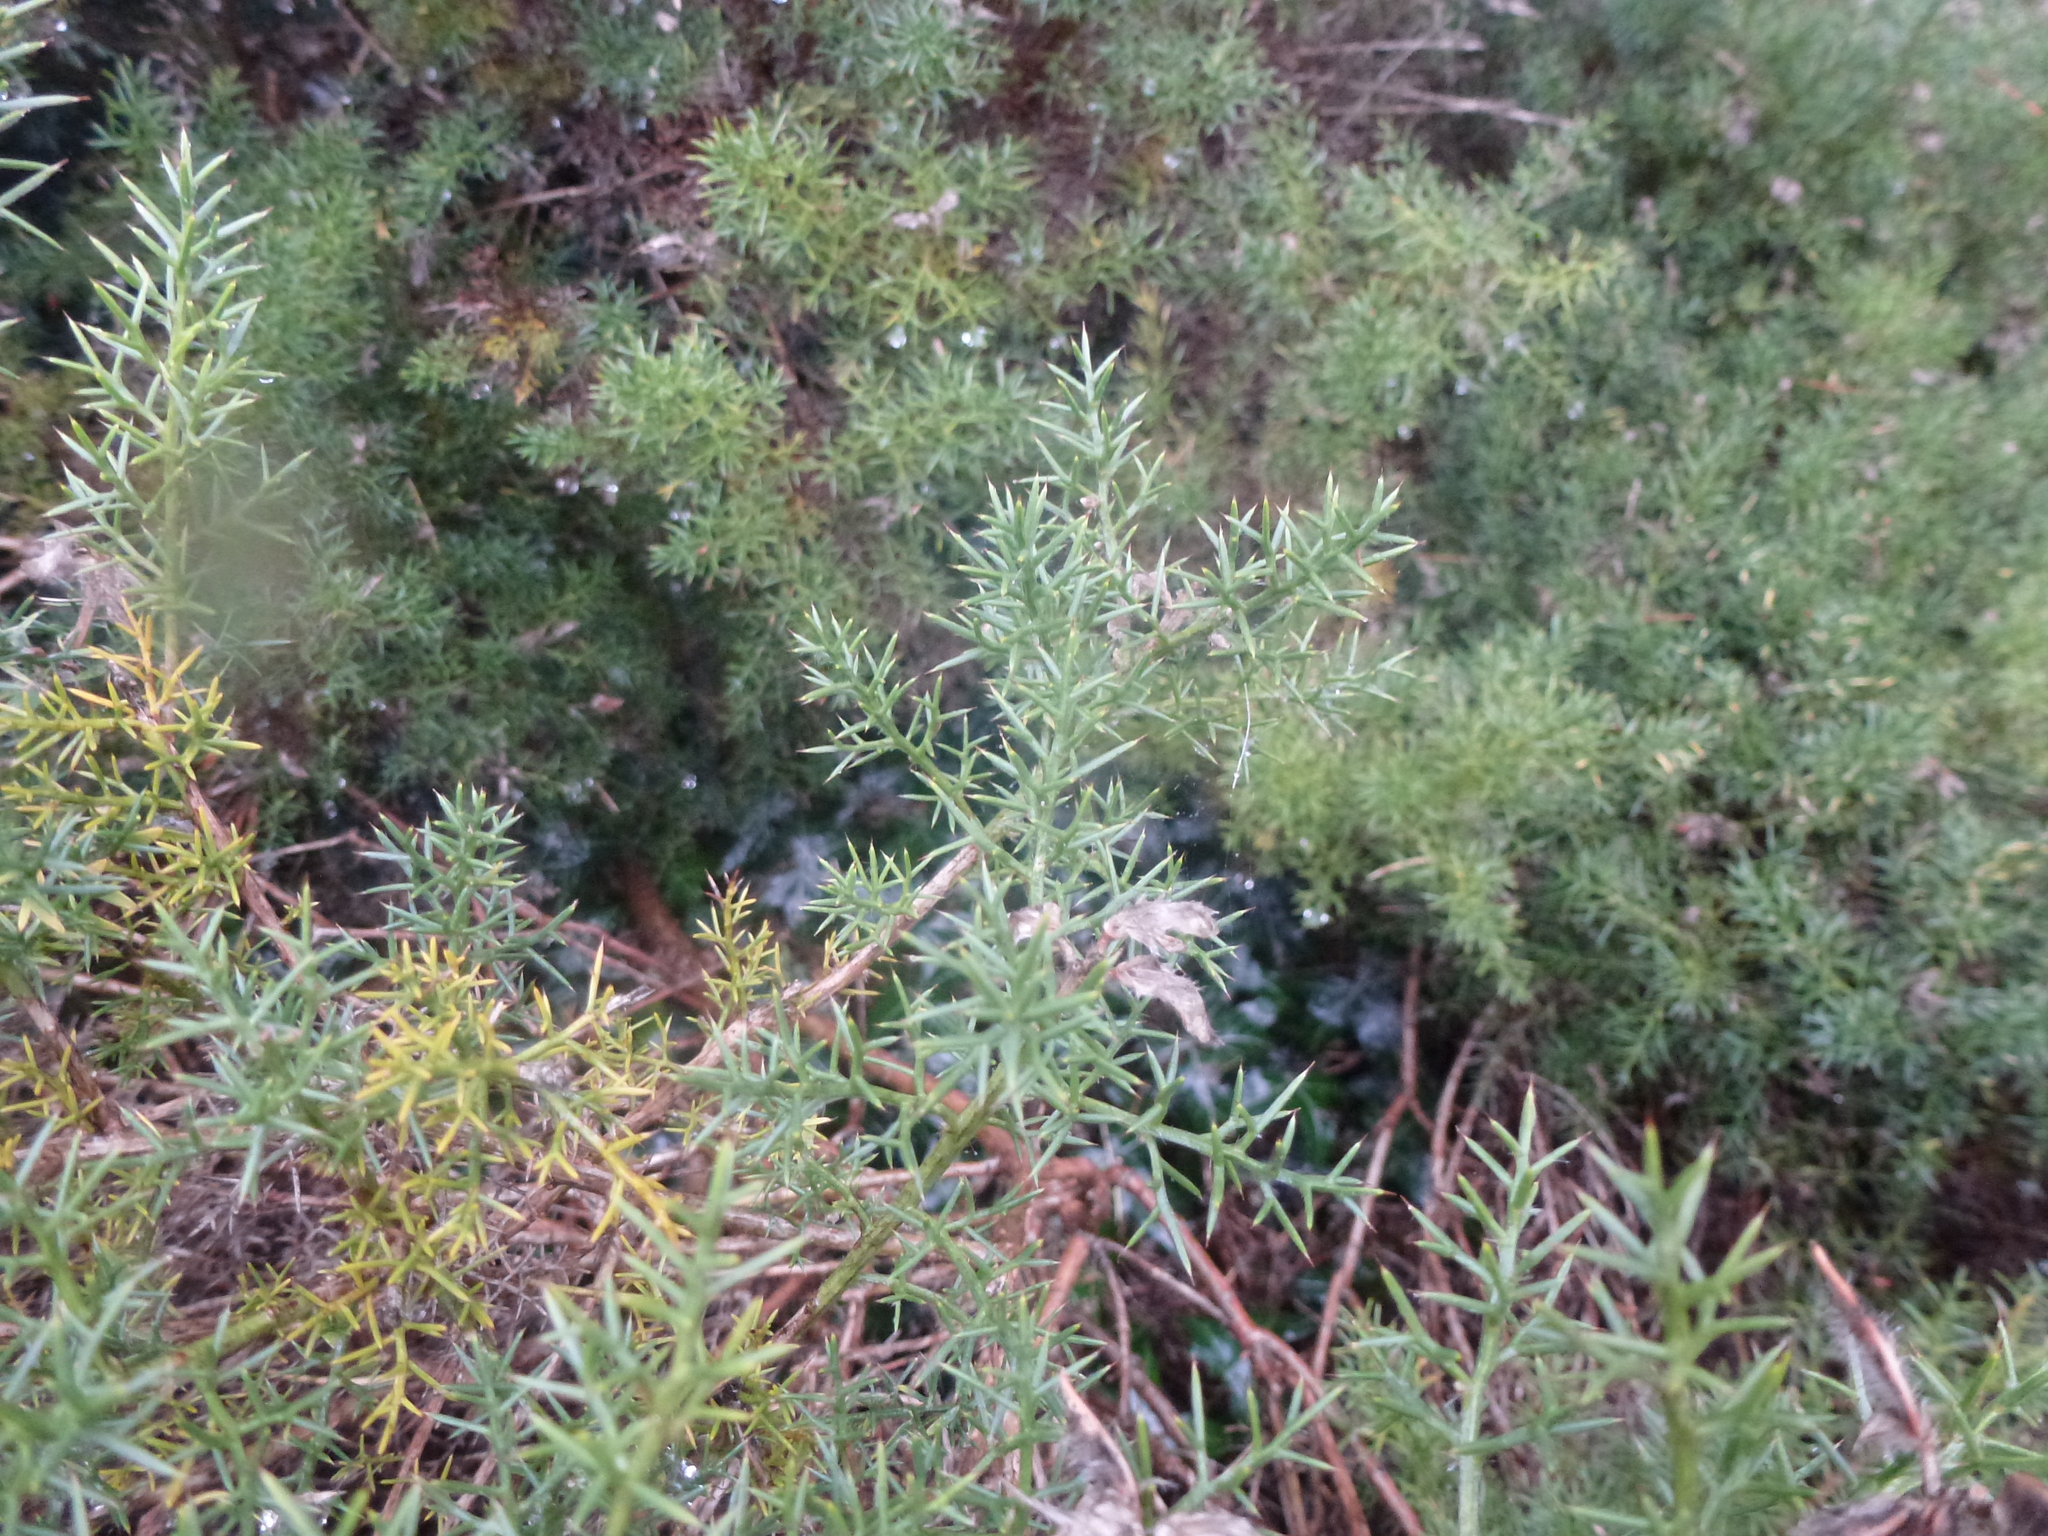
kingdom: Plantae
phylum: Tracheophyta
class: Magnoliopsida
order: Fabales
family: Fabaceae
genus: Ulex
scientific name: Ulex europaeus
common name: Common gorse
